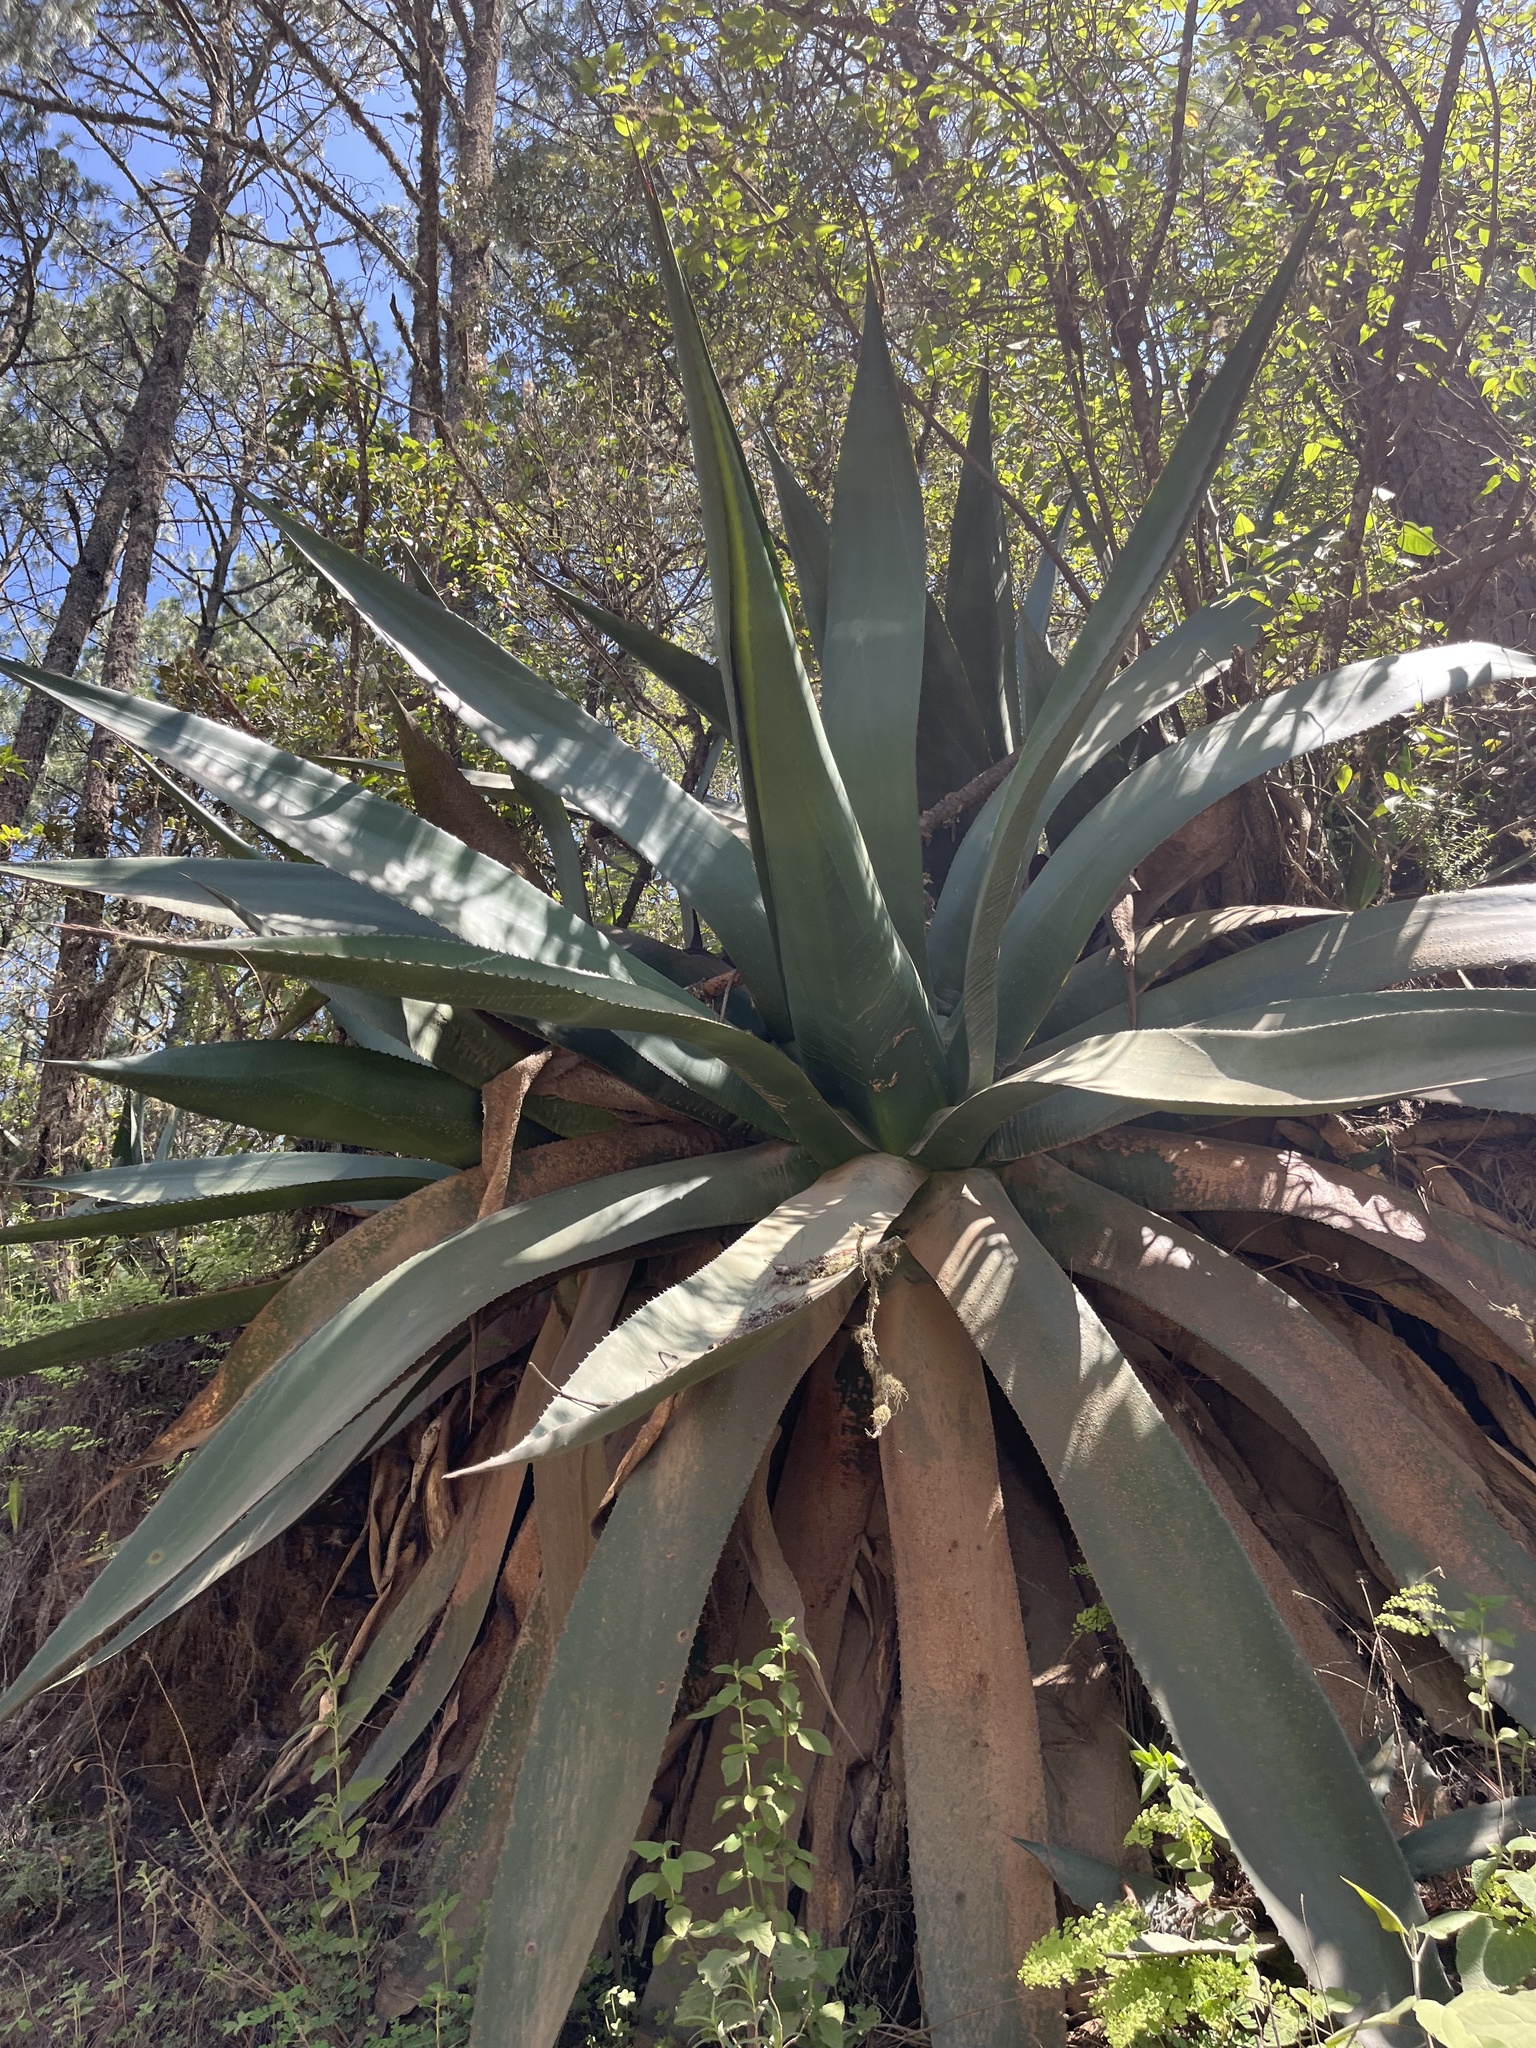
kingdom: Plantae
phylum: Tracheophyta
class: Liliopsida
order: Asparagales
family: Asparagaceae
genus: Agave
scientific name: Agave atrovirens
